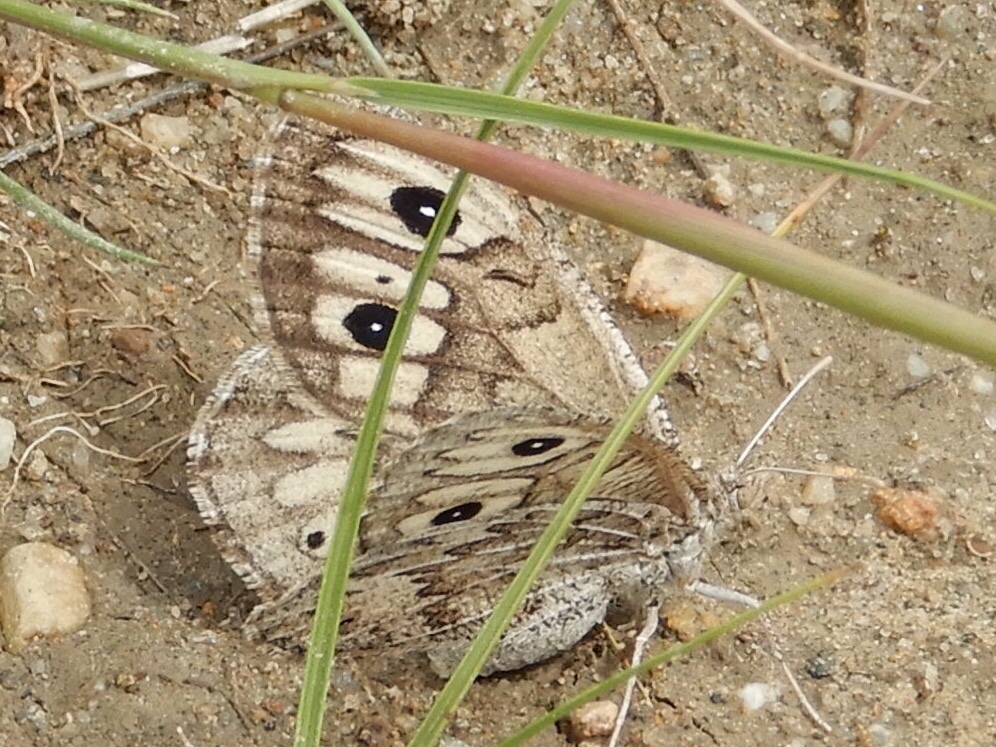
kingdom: Animalia
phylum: Arthropoda
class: Insecta
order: Lepidoptera
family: Nymphalidae
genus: Neominois
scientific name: Neominois ridingsii
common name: Ridings' satyr
